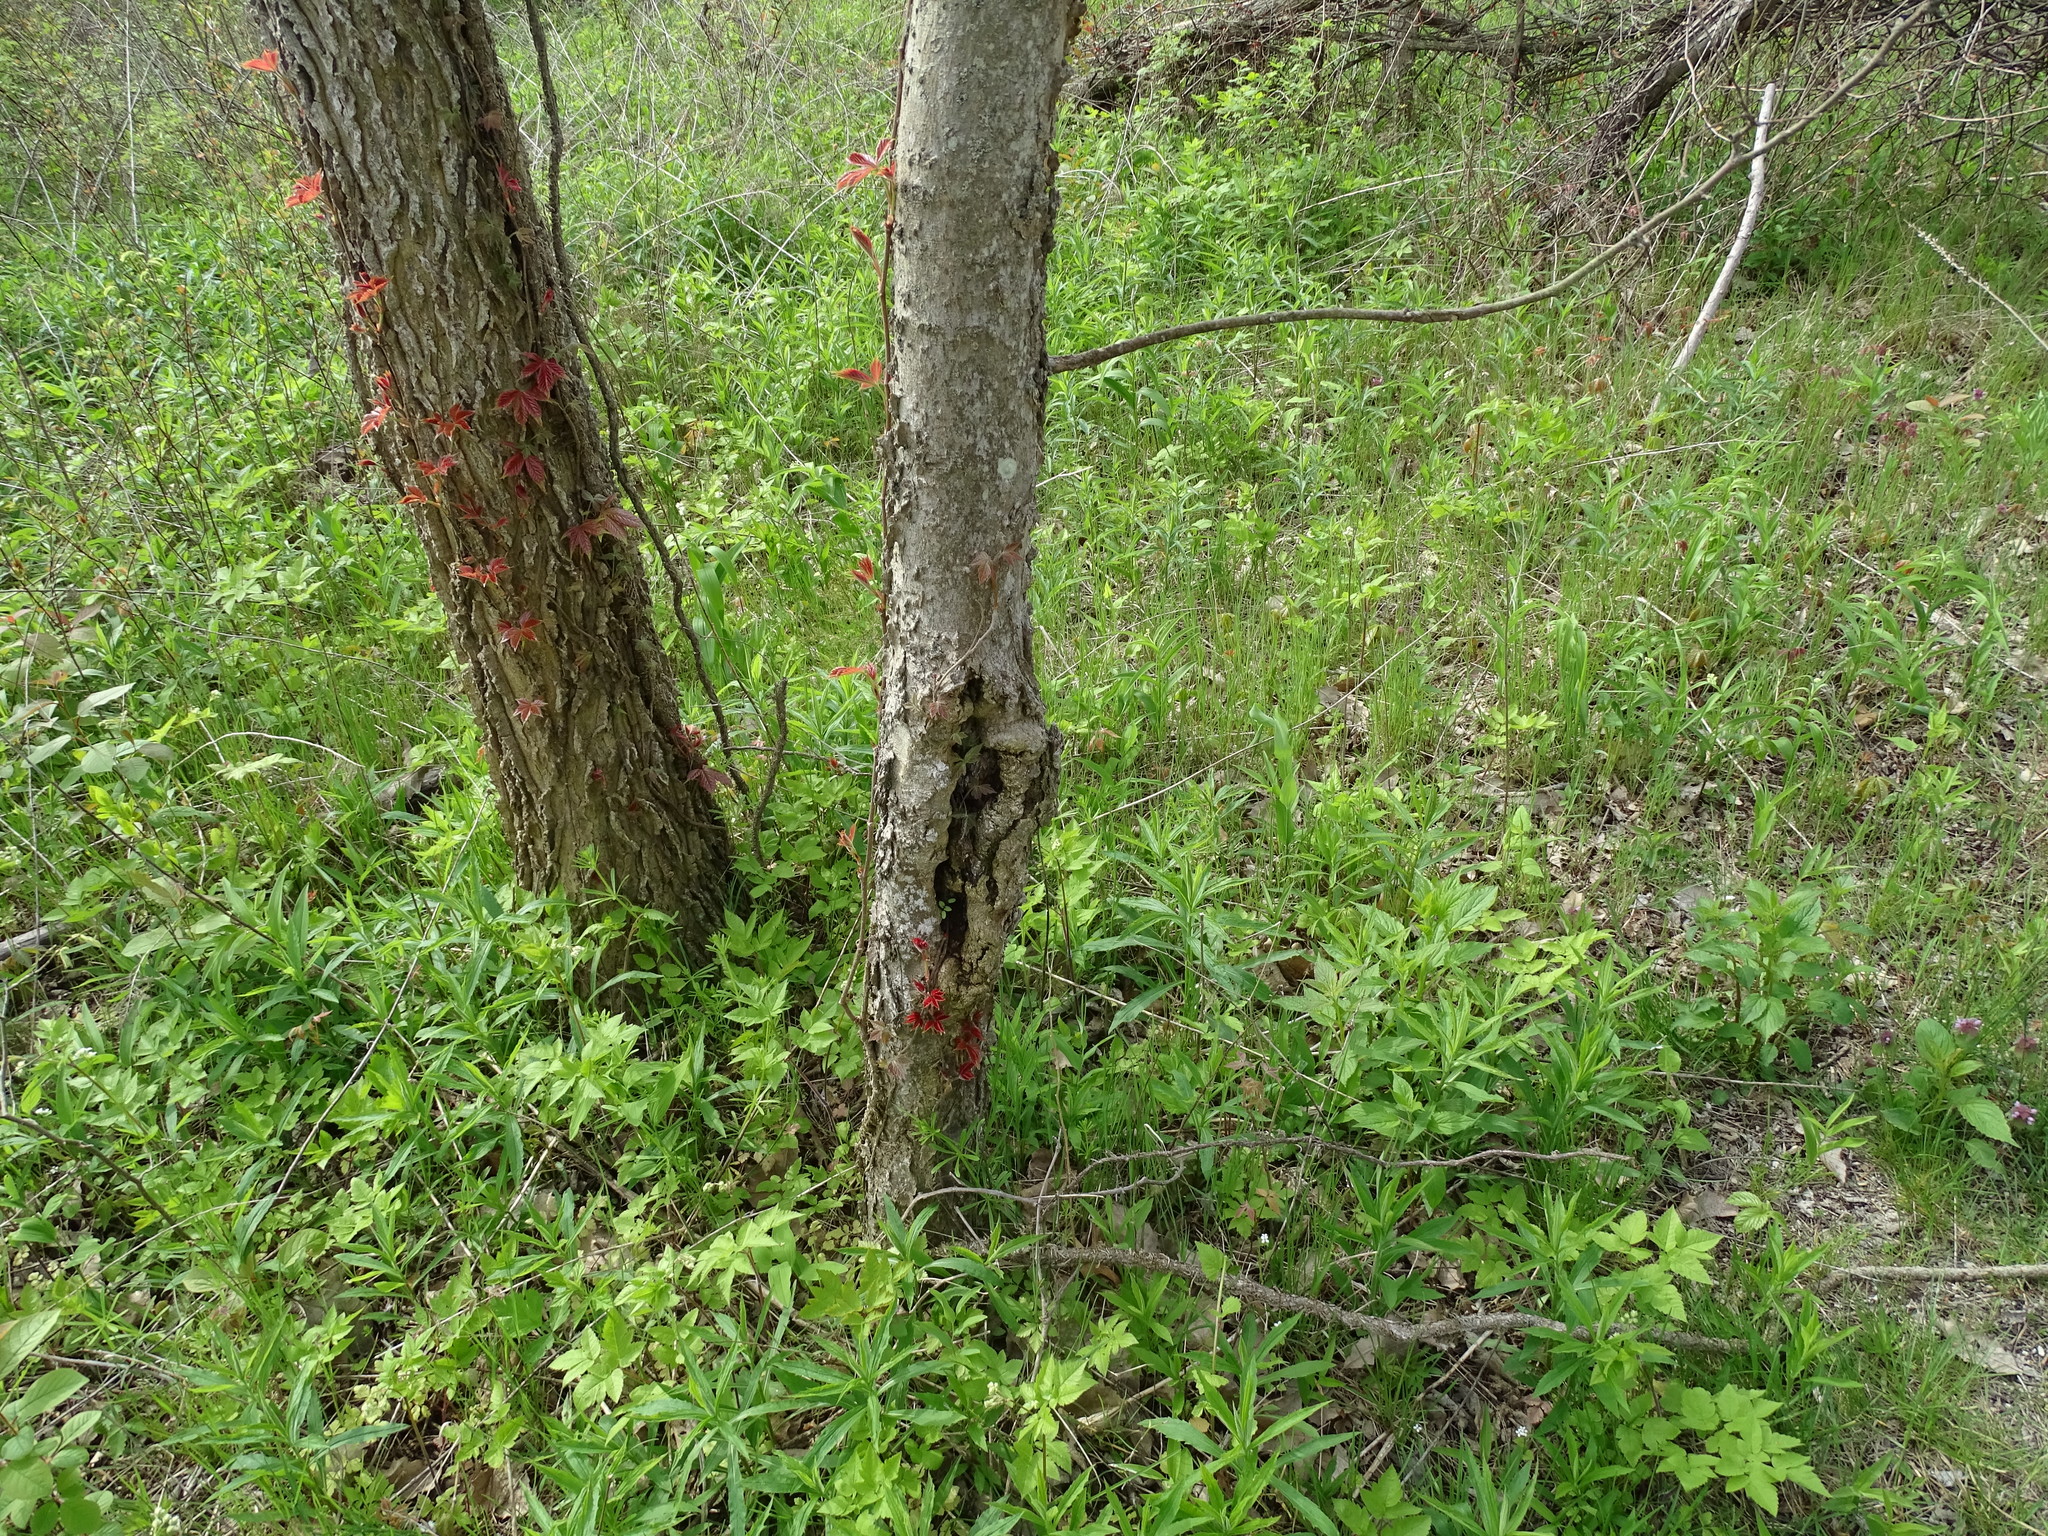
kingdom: Plantae
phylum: Tracheophyta
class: Magnoliopsida
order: Rosales
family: Cannabaceae
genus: Celtis
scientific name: Celtis tenuifolia
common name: Georgia hackberry
